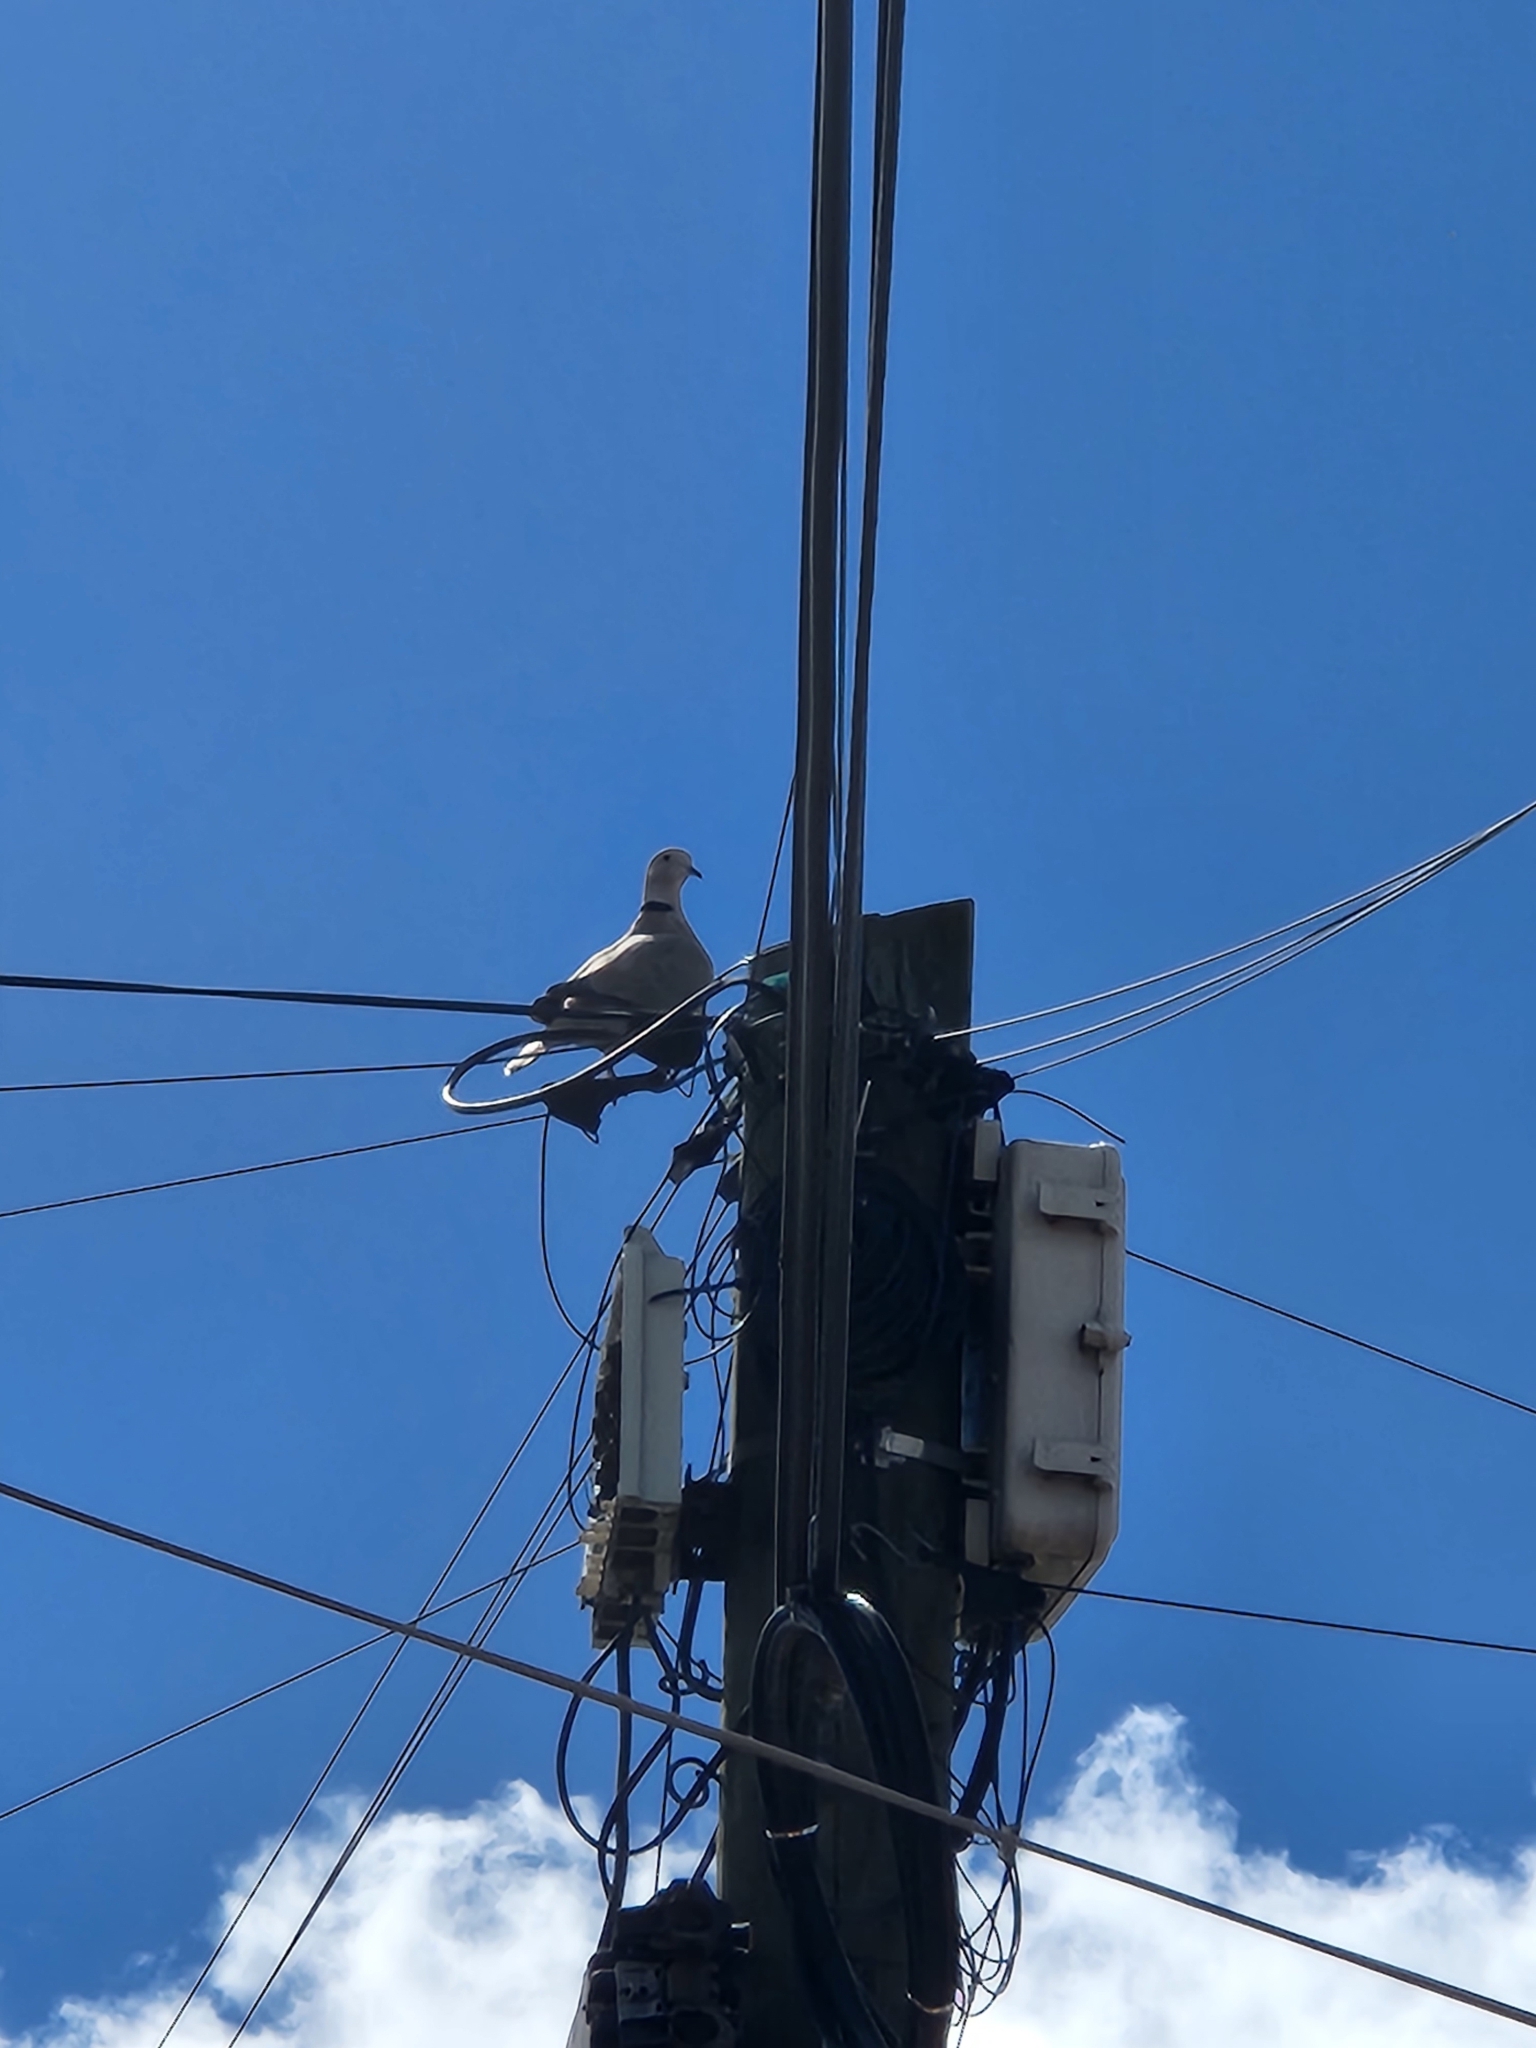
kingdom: Animalia
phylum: Chordata
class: Aves
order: Columbiformes
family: Columbidae
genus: Streptopelia
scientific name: Streptopelia decaocto
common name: Eurasian collared dove
